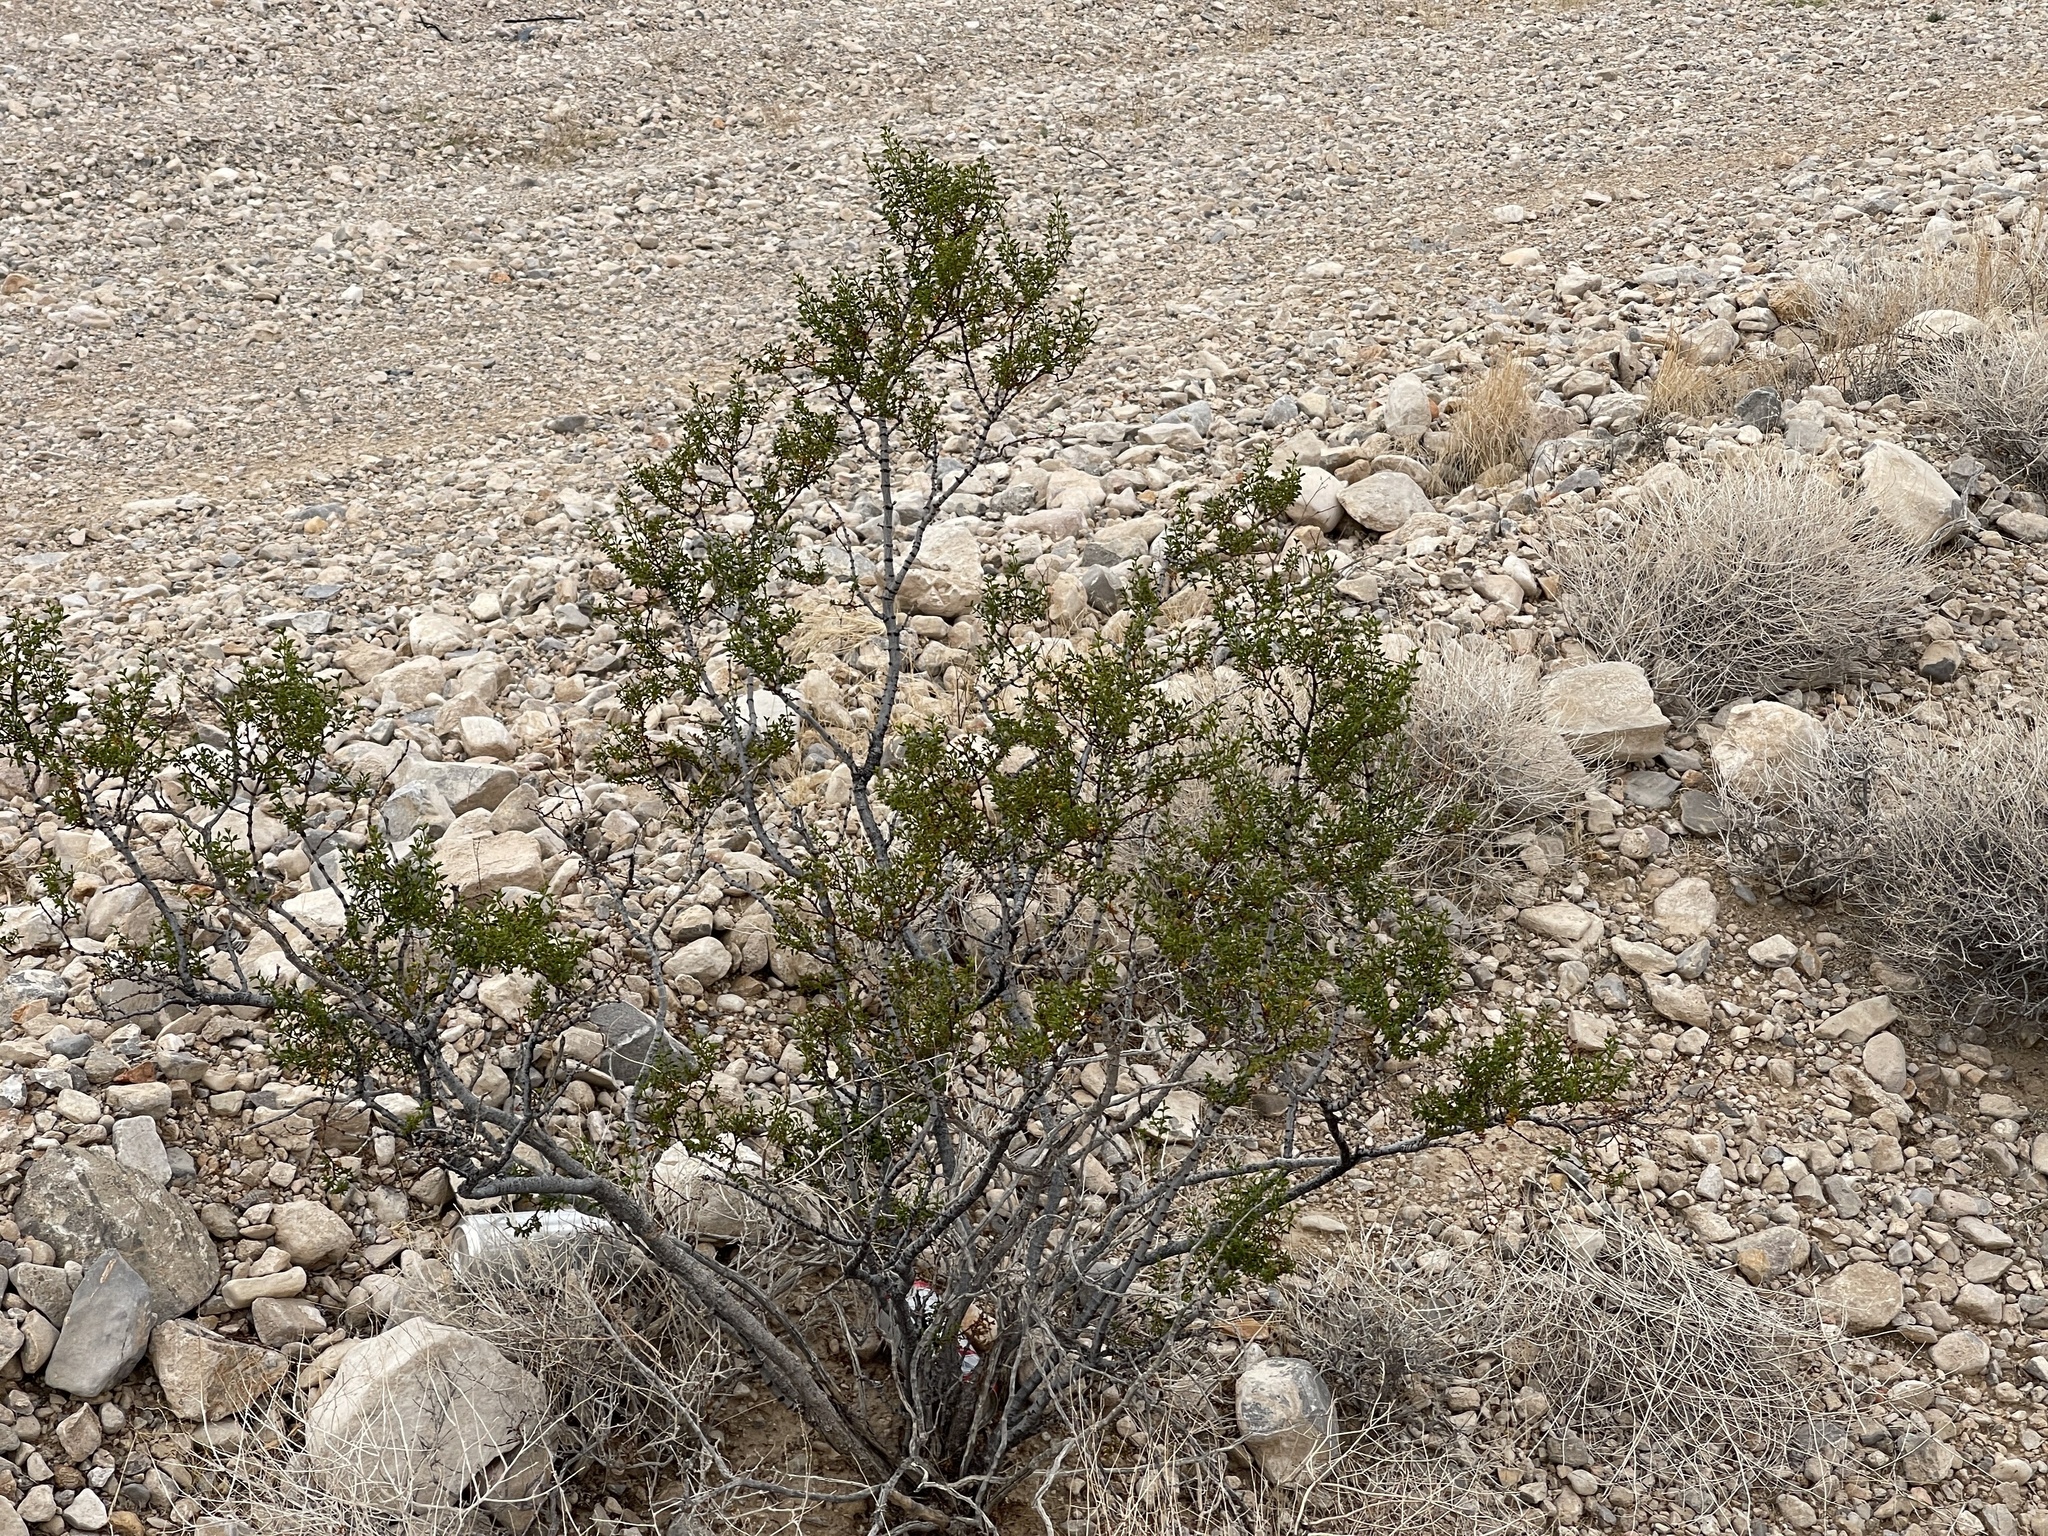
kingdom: Plantae
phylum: Tracheophyta
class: Magnoliopsida
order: Zygophyllales
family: Zygophyllaceae
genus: Larrea
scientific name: Larrea tridentata
